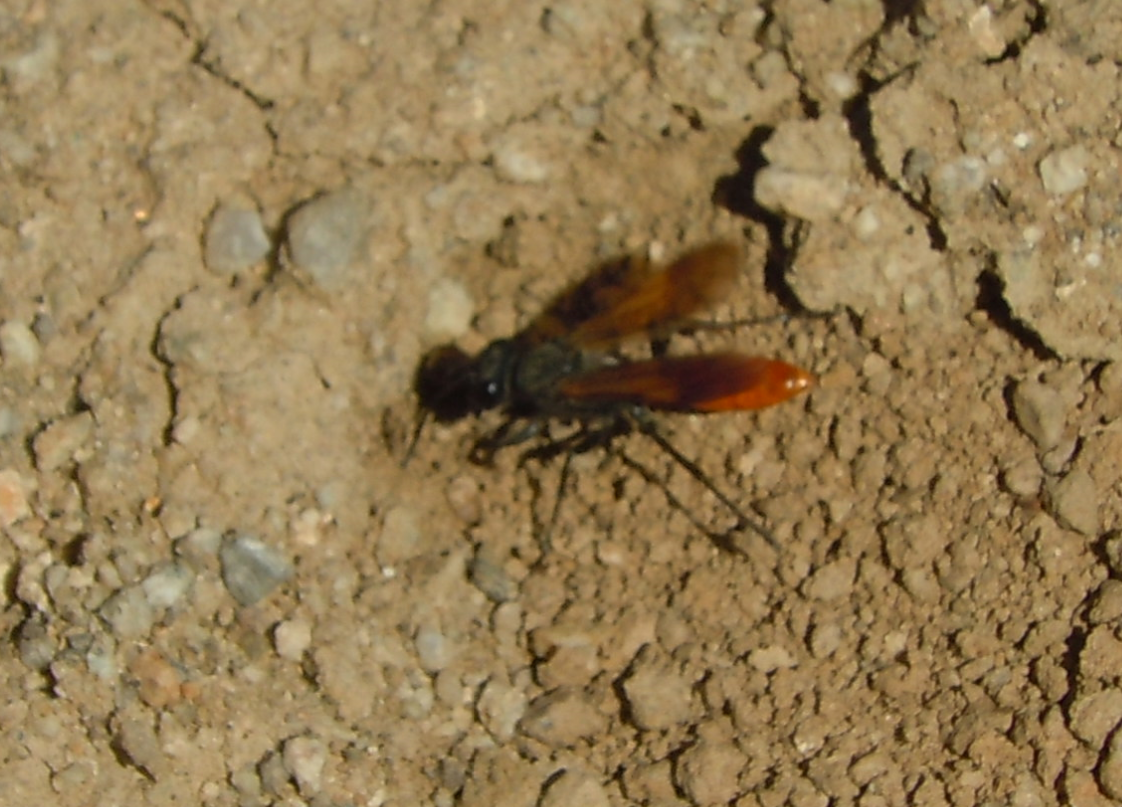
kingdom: Animalia
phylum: Arthropoda
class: Insecta
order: Hymenoptera
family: Sphecidae
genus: Sphex
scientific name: Sphex lucae
